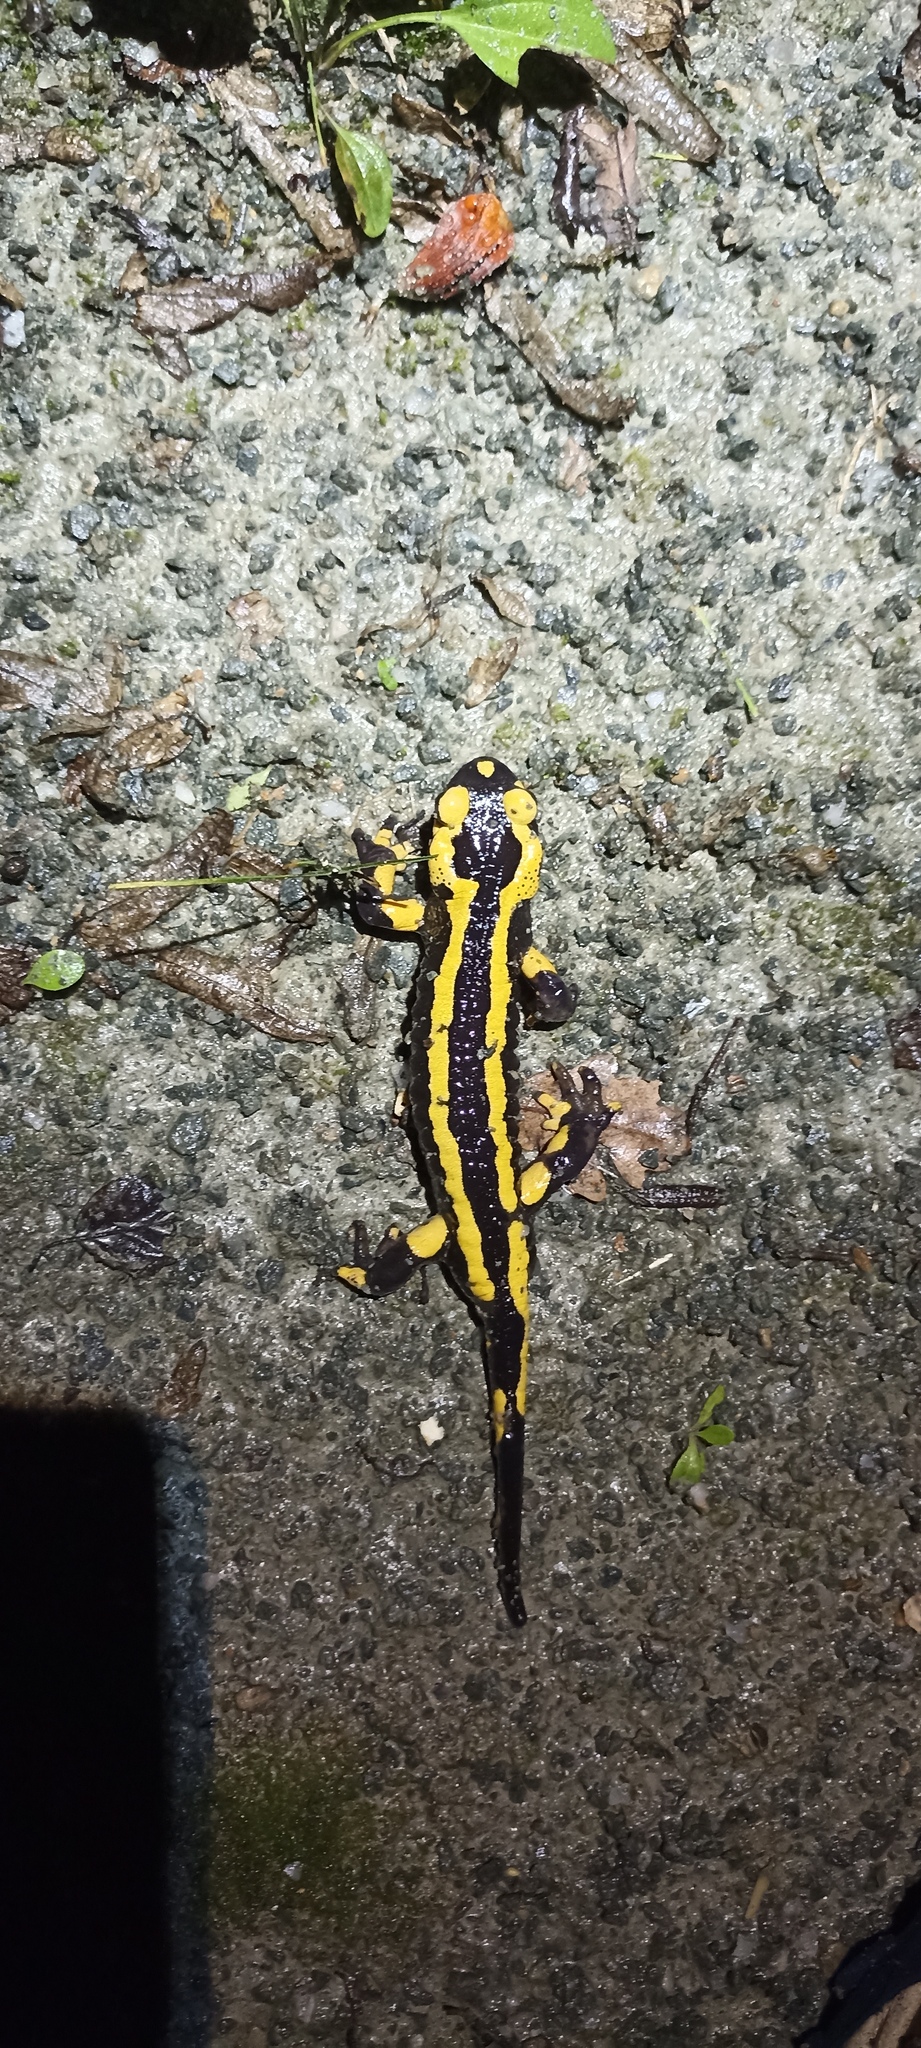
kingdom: Animalia
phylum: Chordata
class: Amphibia
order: Caudata
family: Salamandridae
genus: Salamandra
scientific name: Salamandra salamandra
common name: Fire salamander
